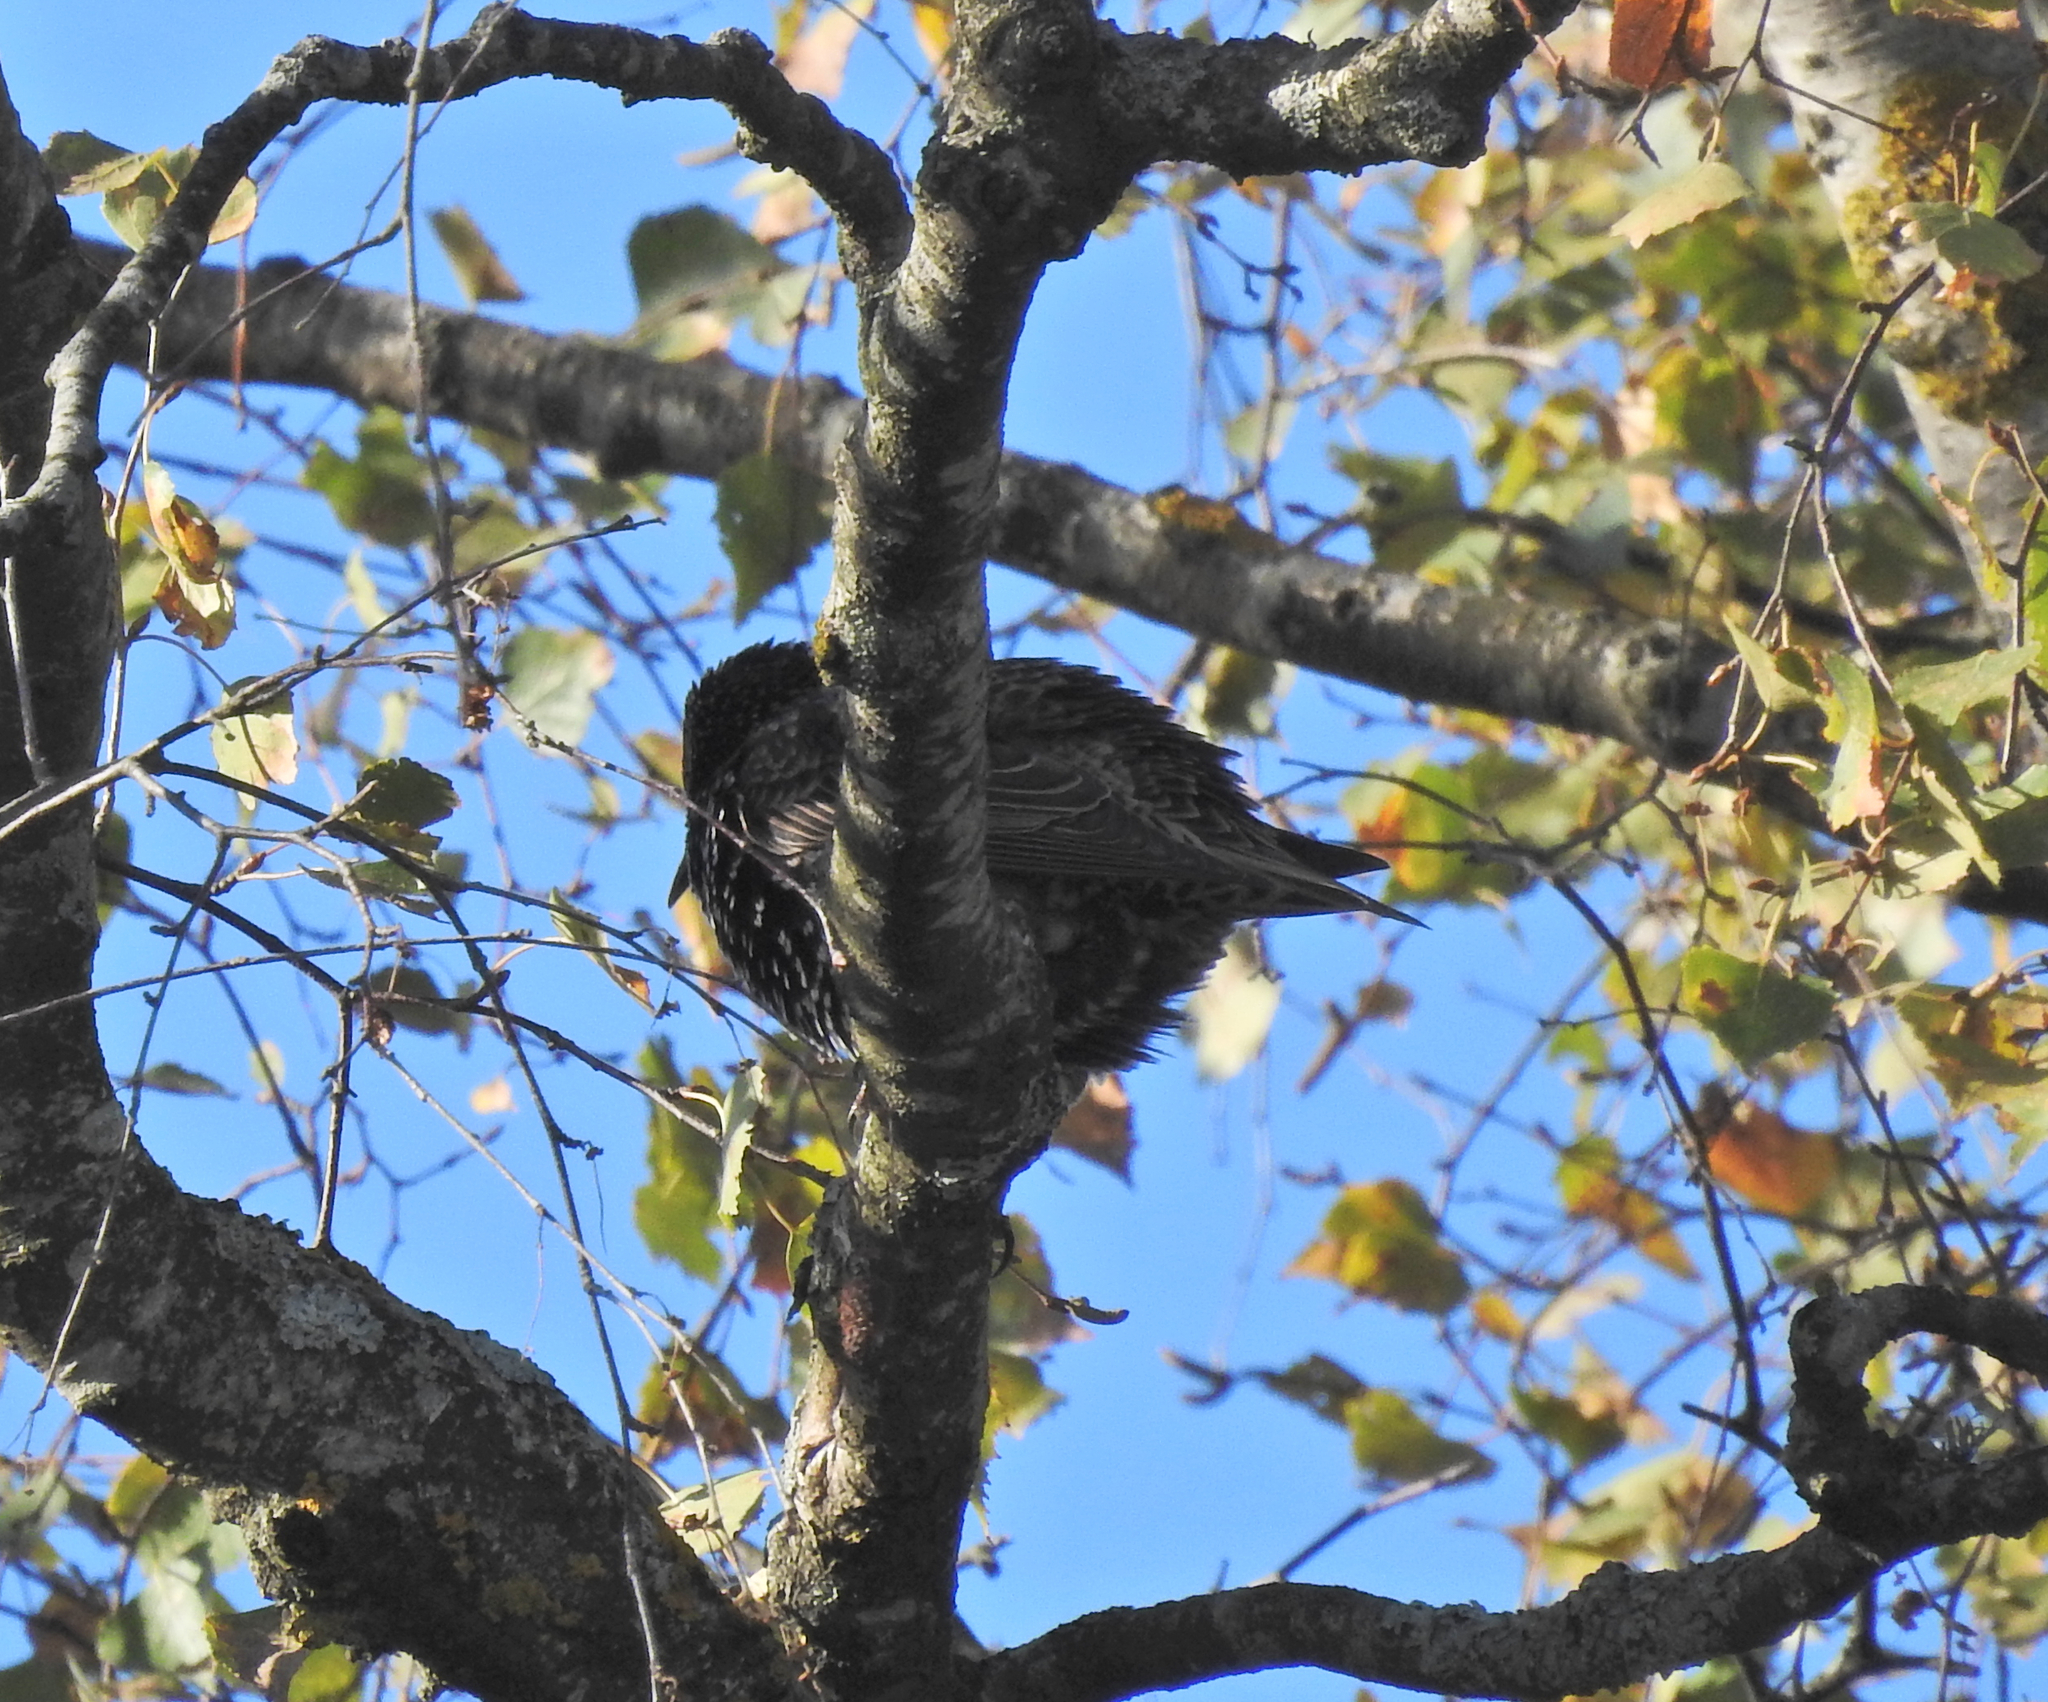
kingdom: Animalia
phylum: Chordata
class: Aves
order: Passeriformes
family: Sturnidae
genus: Sturnus
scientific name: Sturnus vulgaris
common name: Common starling
